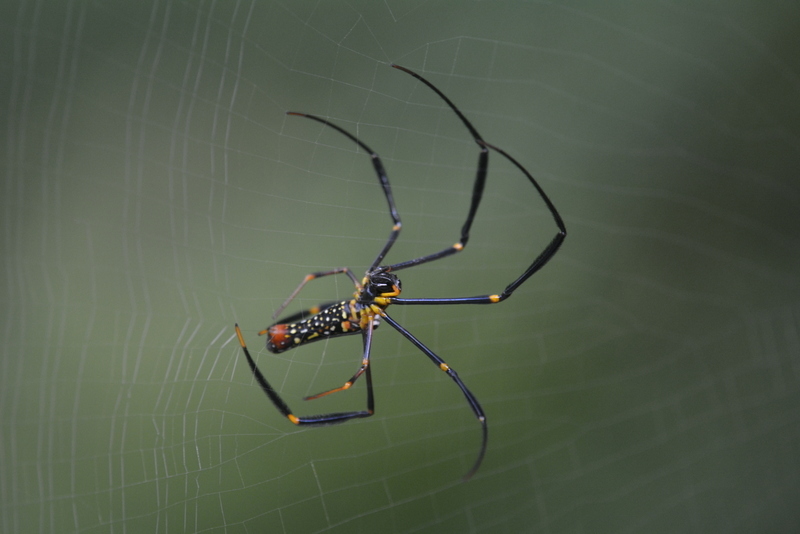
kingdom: Animalia
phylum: Arthropoda
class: Arachnida
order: Araneae
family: Araneidae
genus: Nephila
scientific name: Nephila pilipes
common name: Giant golden orb weaver
